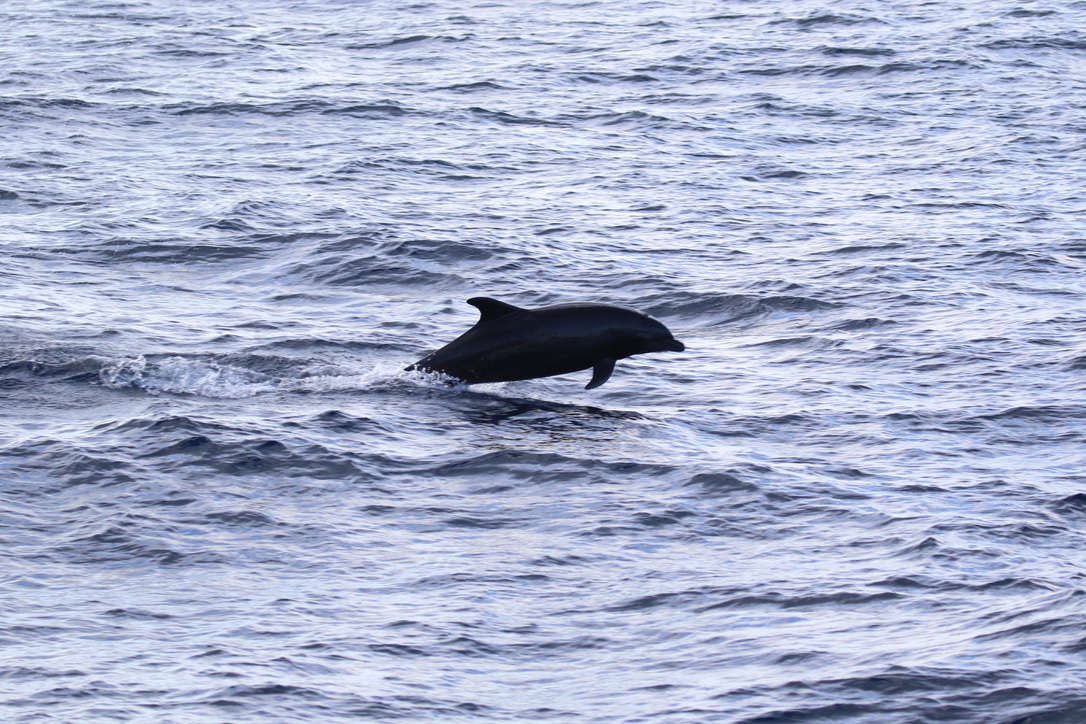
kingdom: Animalia
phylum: Chordata
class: Mammalia
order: Cetacea
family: Delphinidae
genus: Tursiops
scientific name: Tursiops truncatus
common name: Bottlenose dolphin
